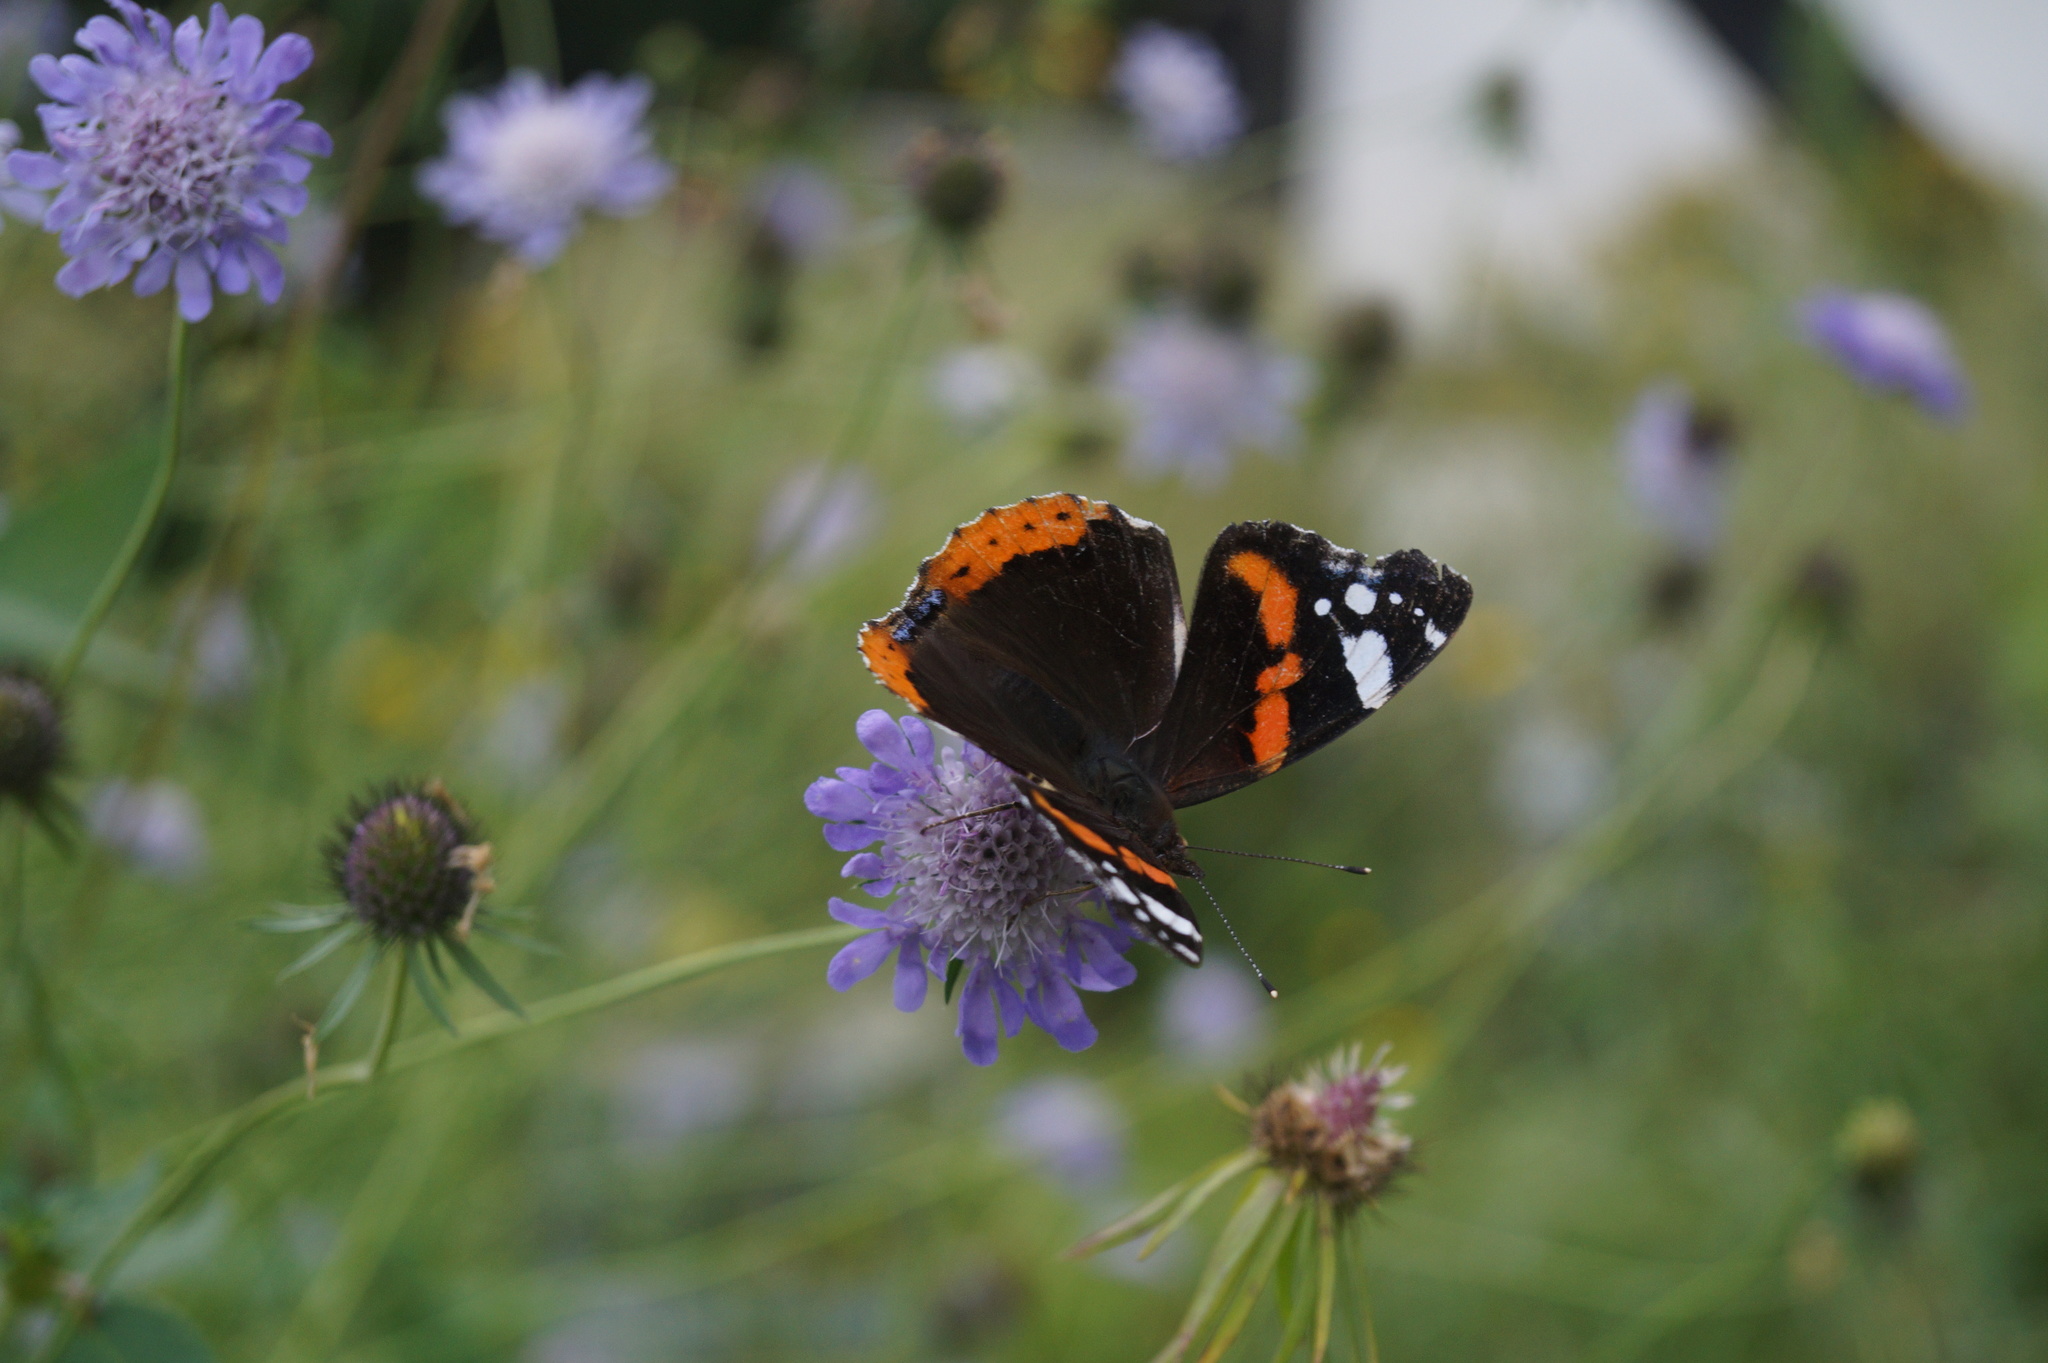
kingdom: Animalia
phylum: Arthropoda
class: Insecta
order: Lepidoptera
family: Nymphalidae
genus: Vanessa
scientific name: Vanessa atalanta
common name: Red admiral
